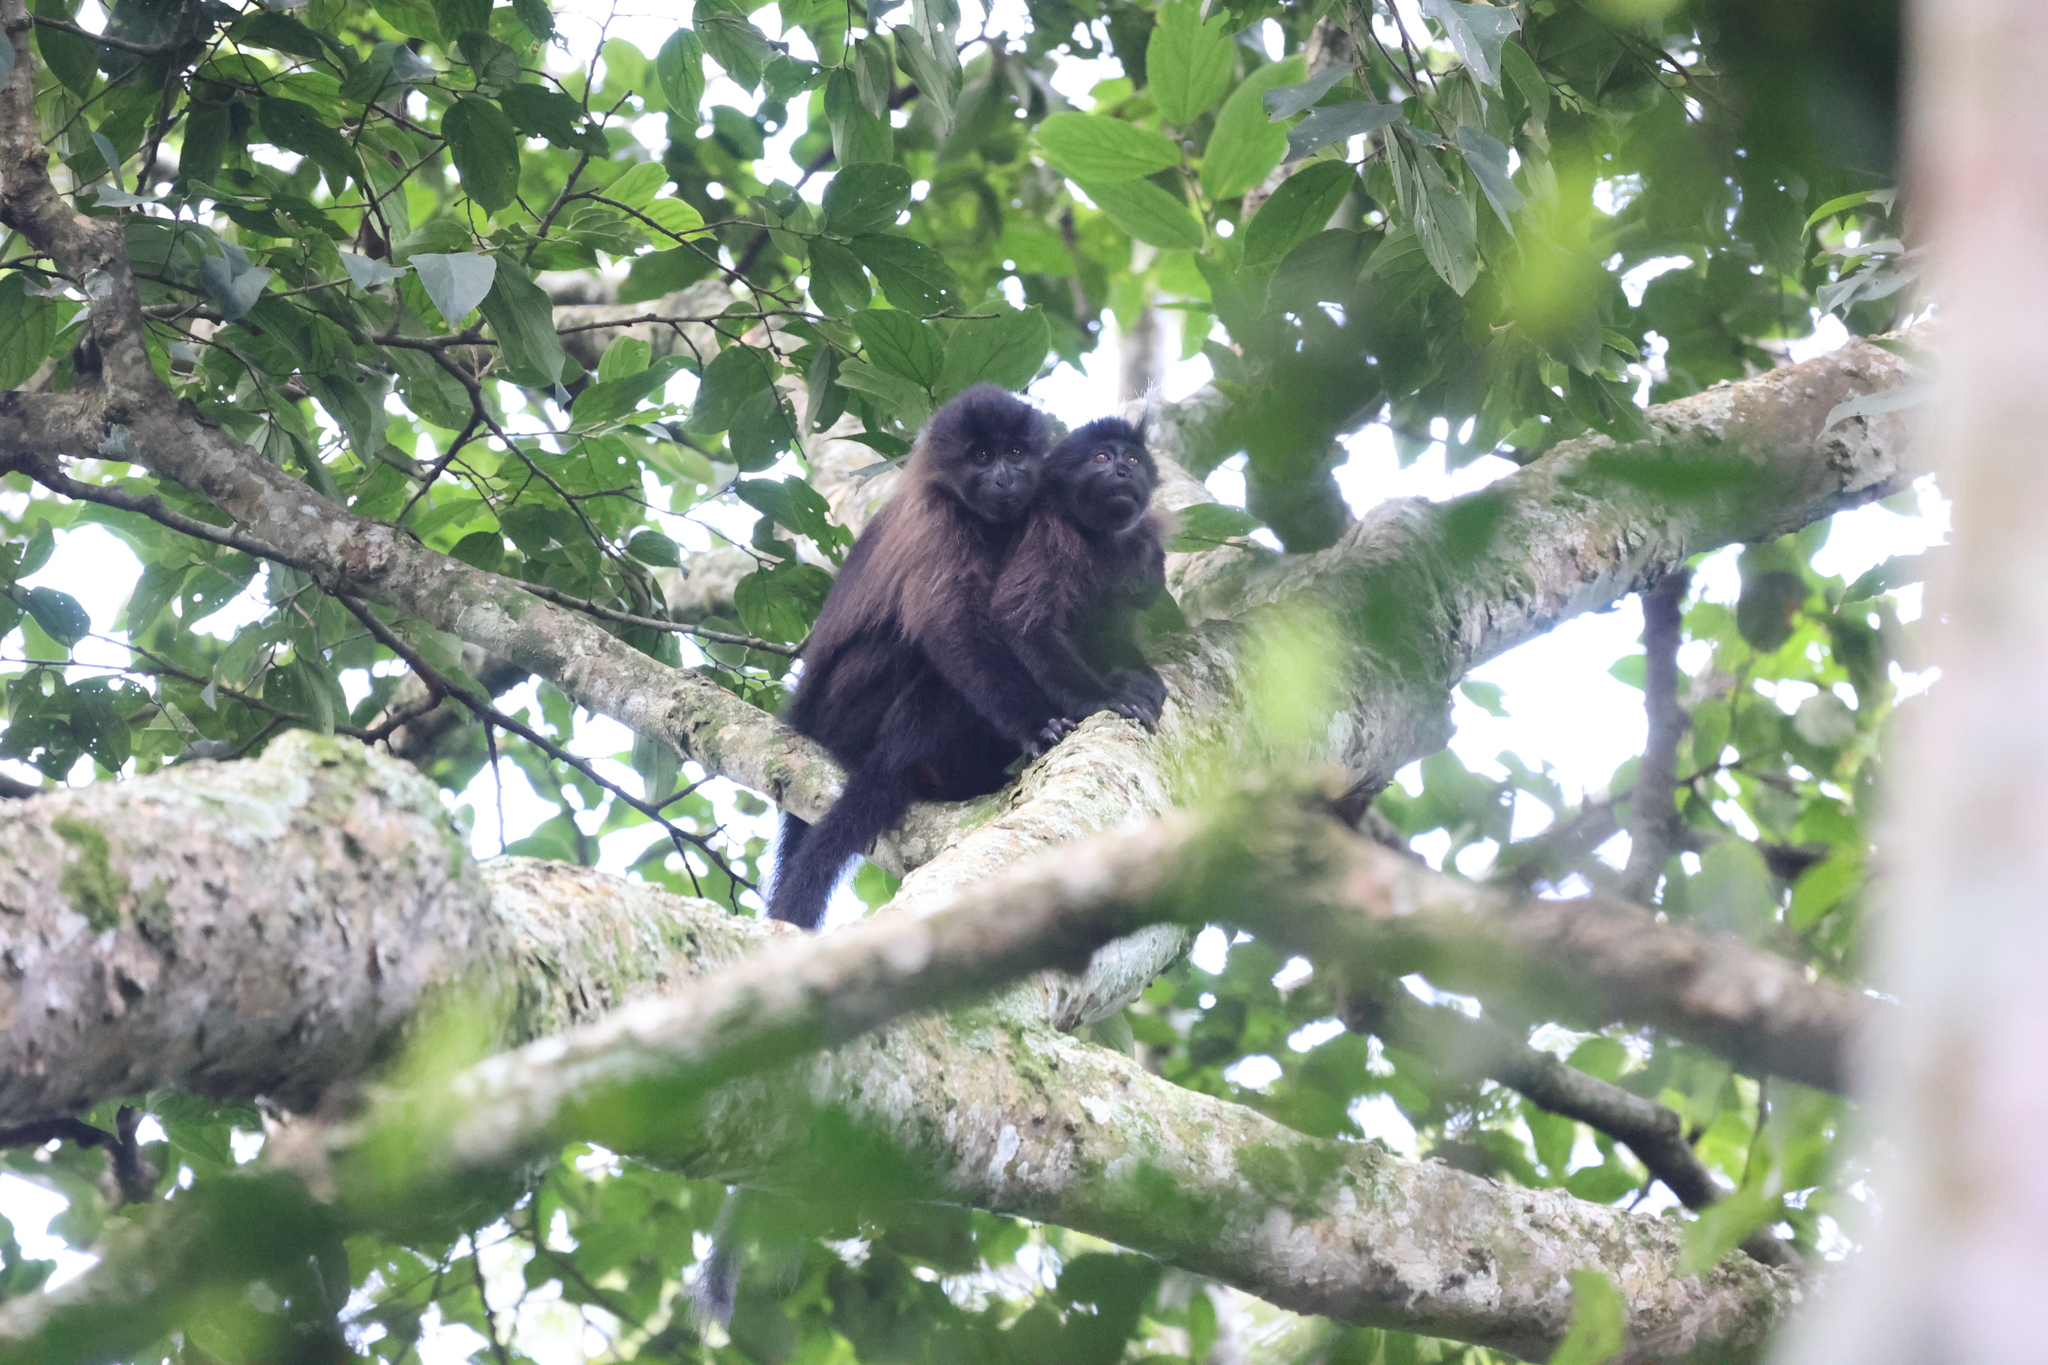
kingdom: Animalia
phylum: Chordata
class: Mammalia
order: Primates
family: Cercopithecidae
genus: Lophocebus
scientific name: Lophocebus albigena
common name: Gray-cheeked mangabey
